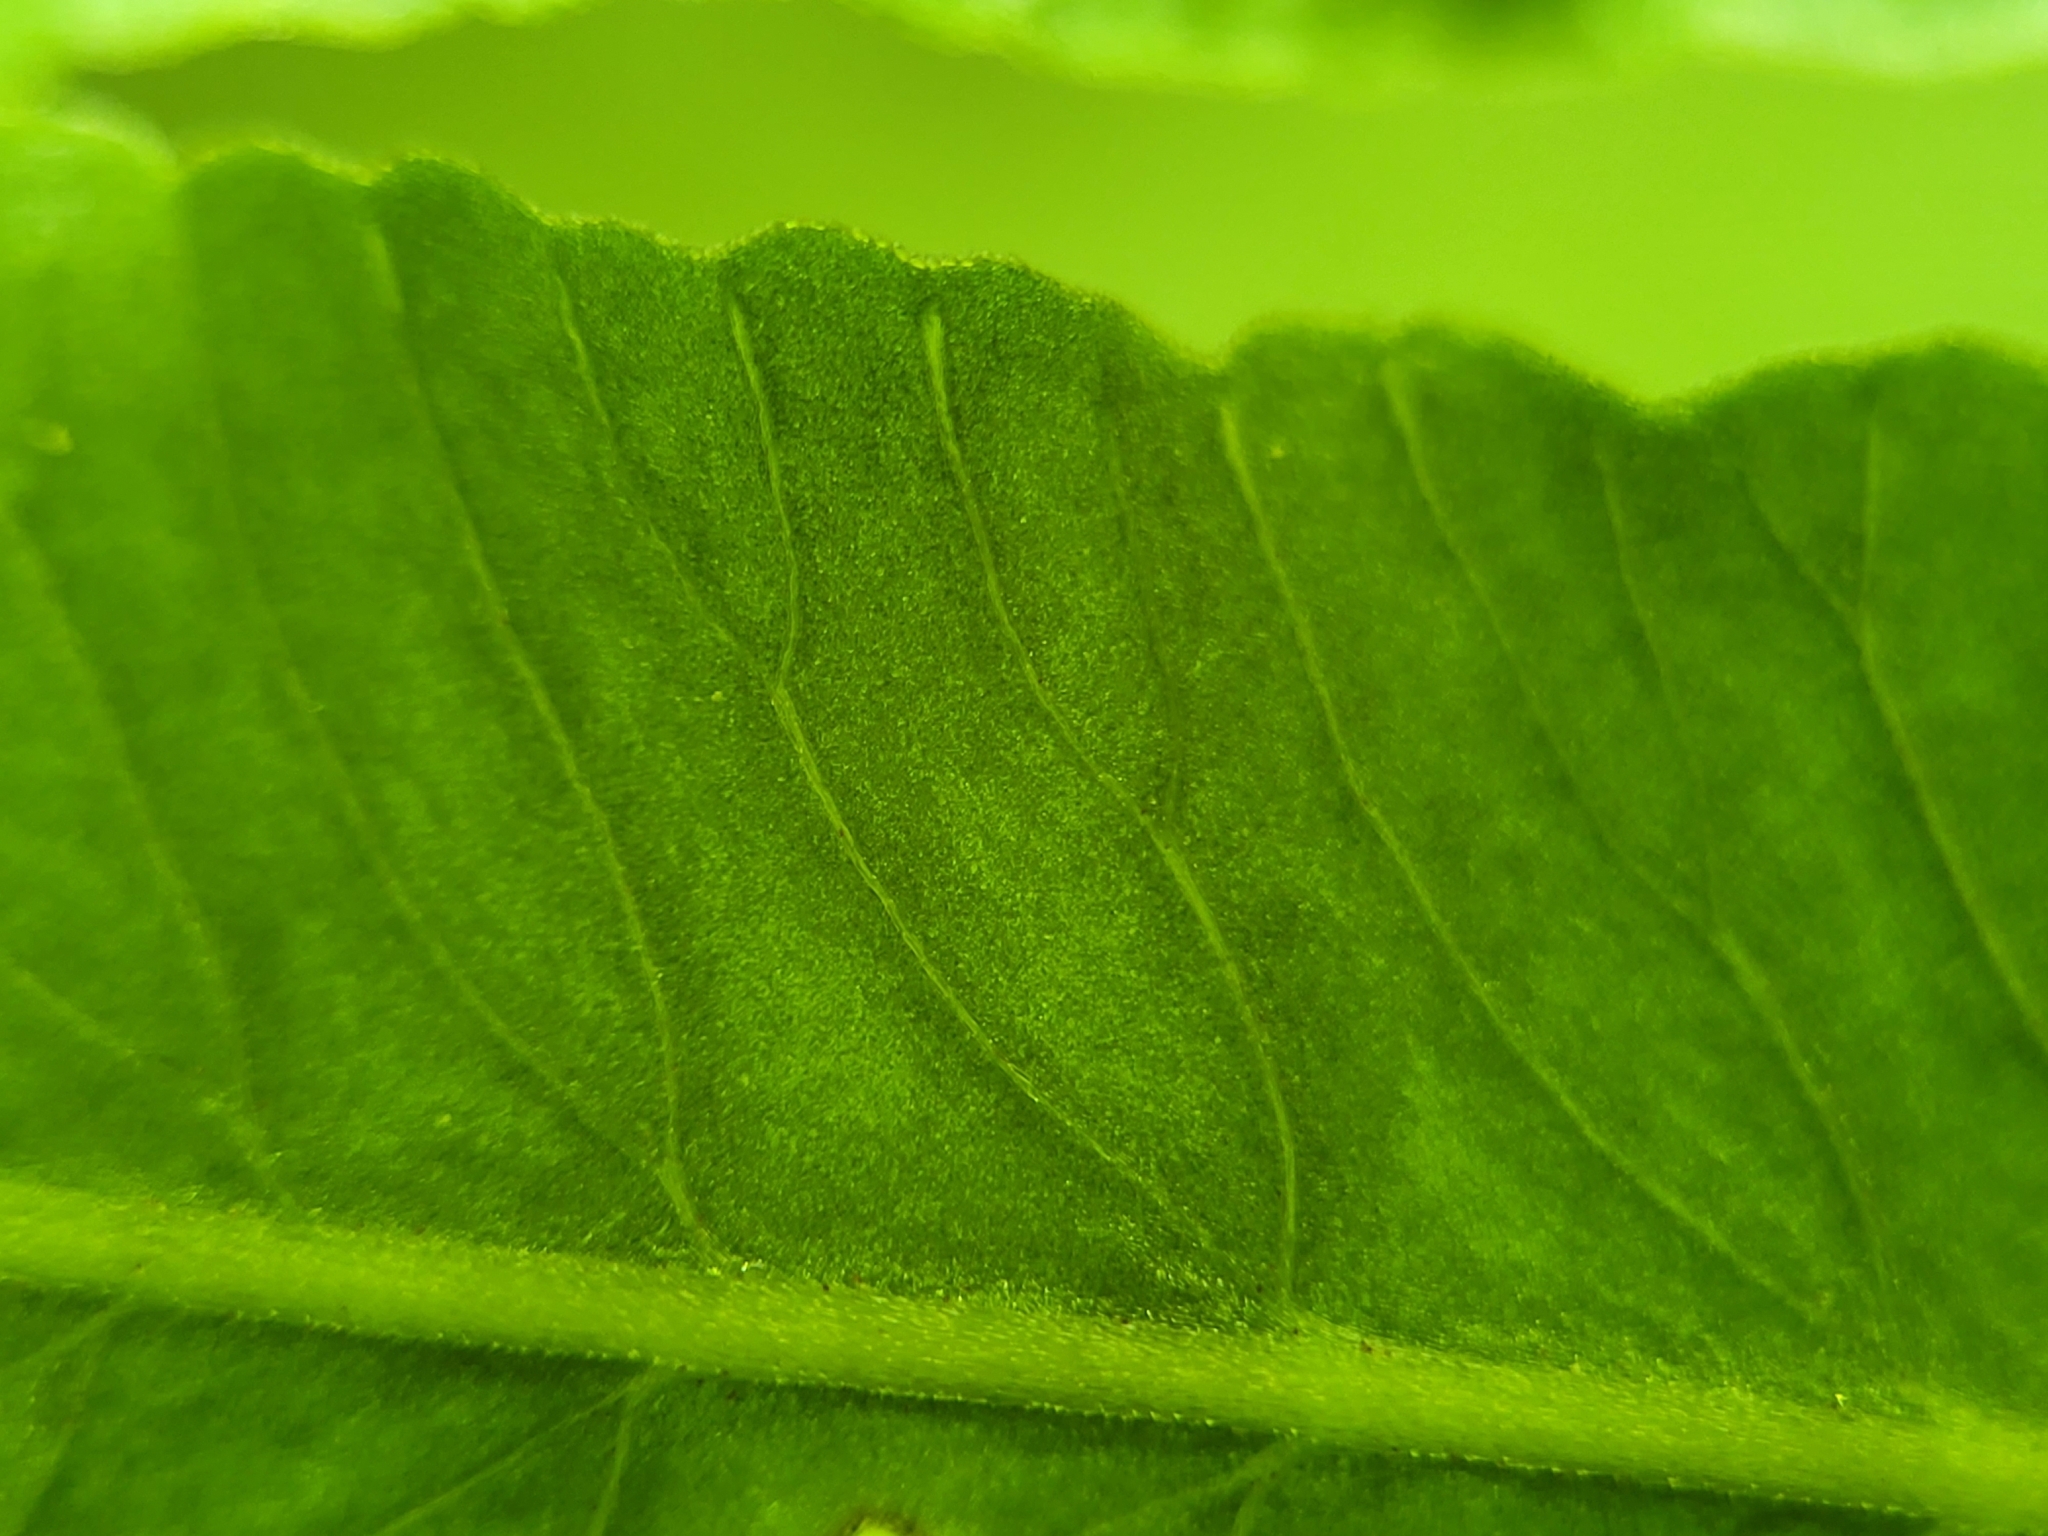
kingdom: Plantae
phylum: Tracheophyta
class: Polypodiopsida
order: Polypodiales
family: Diplaziopsidaceae
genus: Homalosorus
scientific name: Homalosorus pycnocarpos
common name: Glade fern
